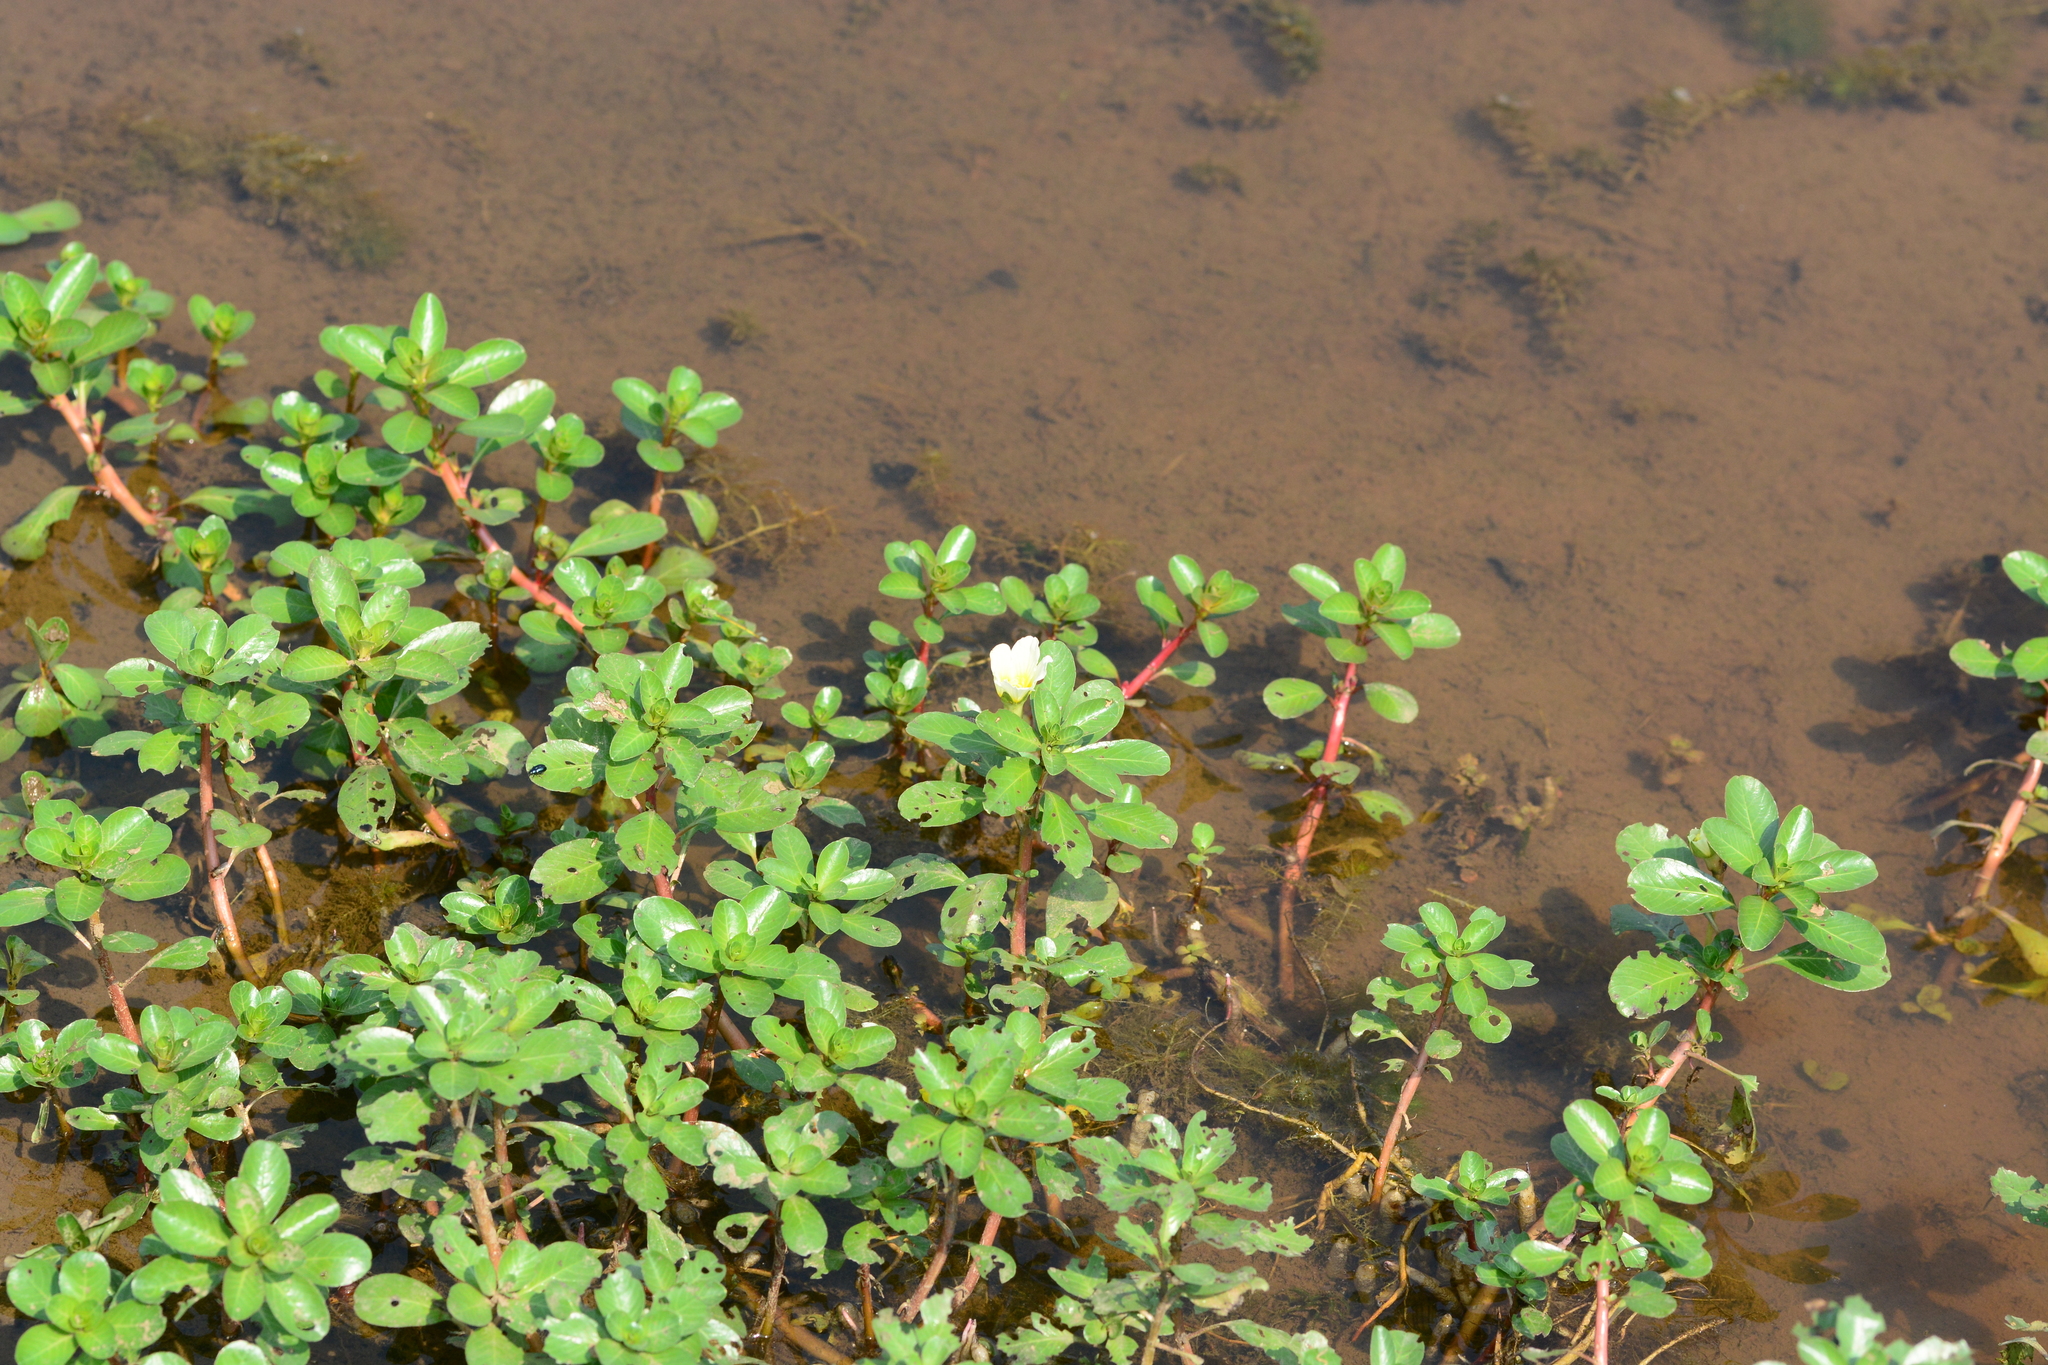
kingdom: Plantae
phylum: Tracheophyta
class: Magnoliopsida
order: Myrtales
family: Onagraceae
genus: Ludwigia
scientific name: Ludwigia adscendens
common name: Creeping water primrose
